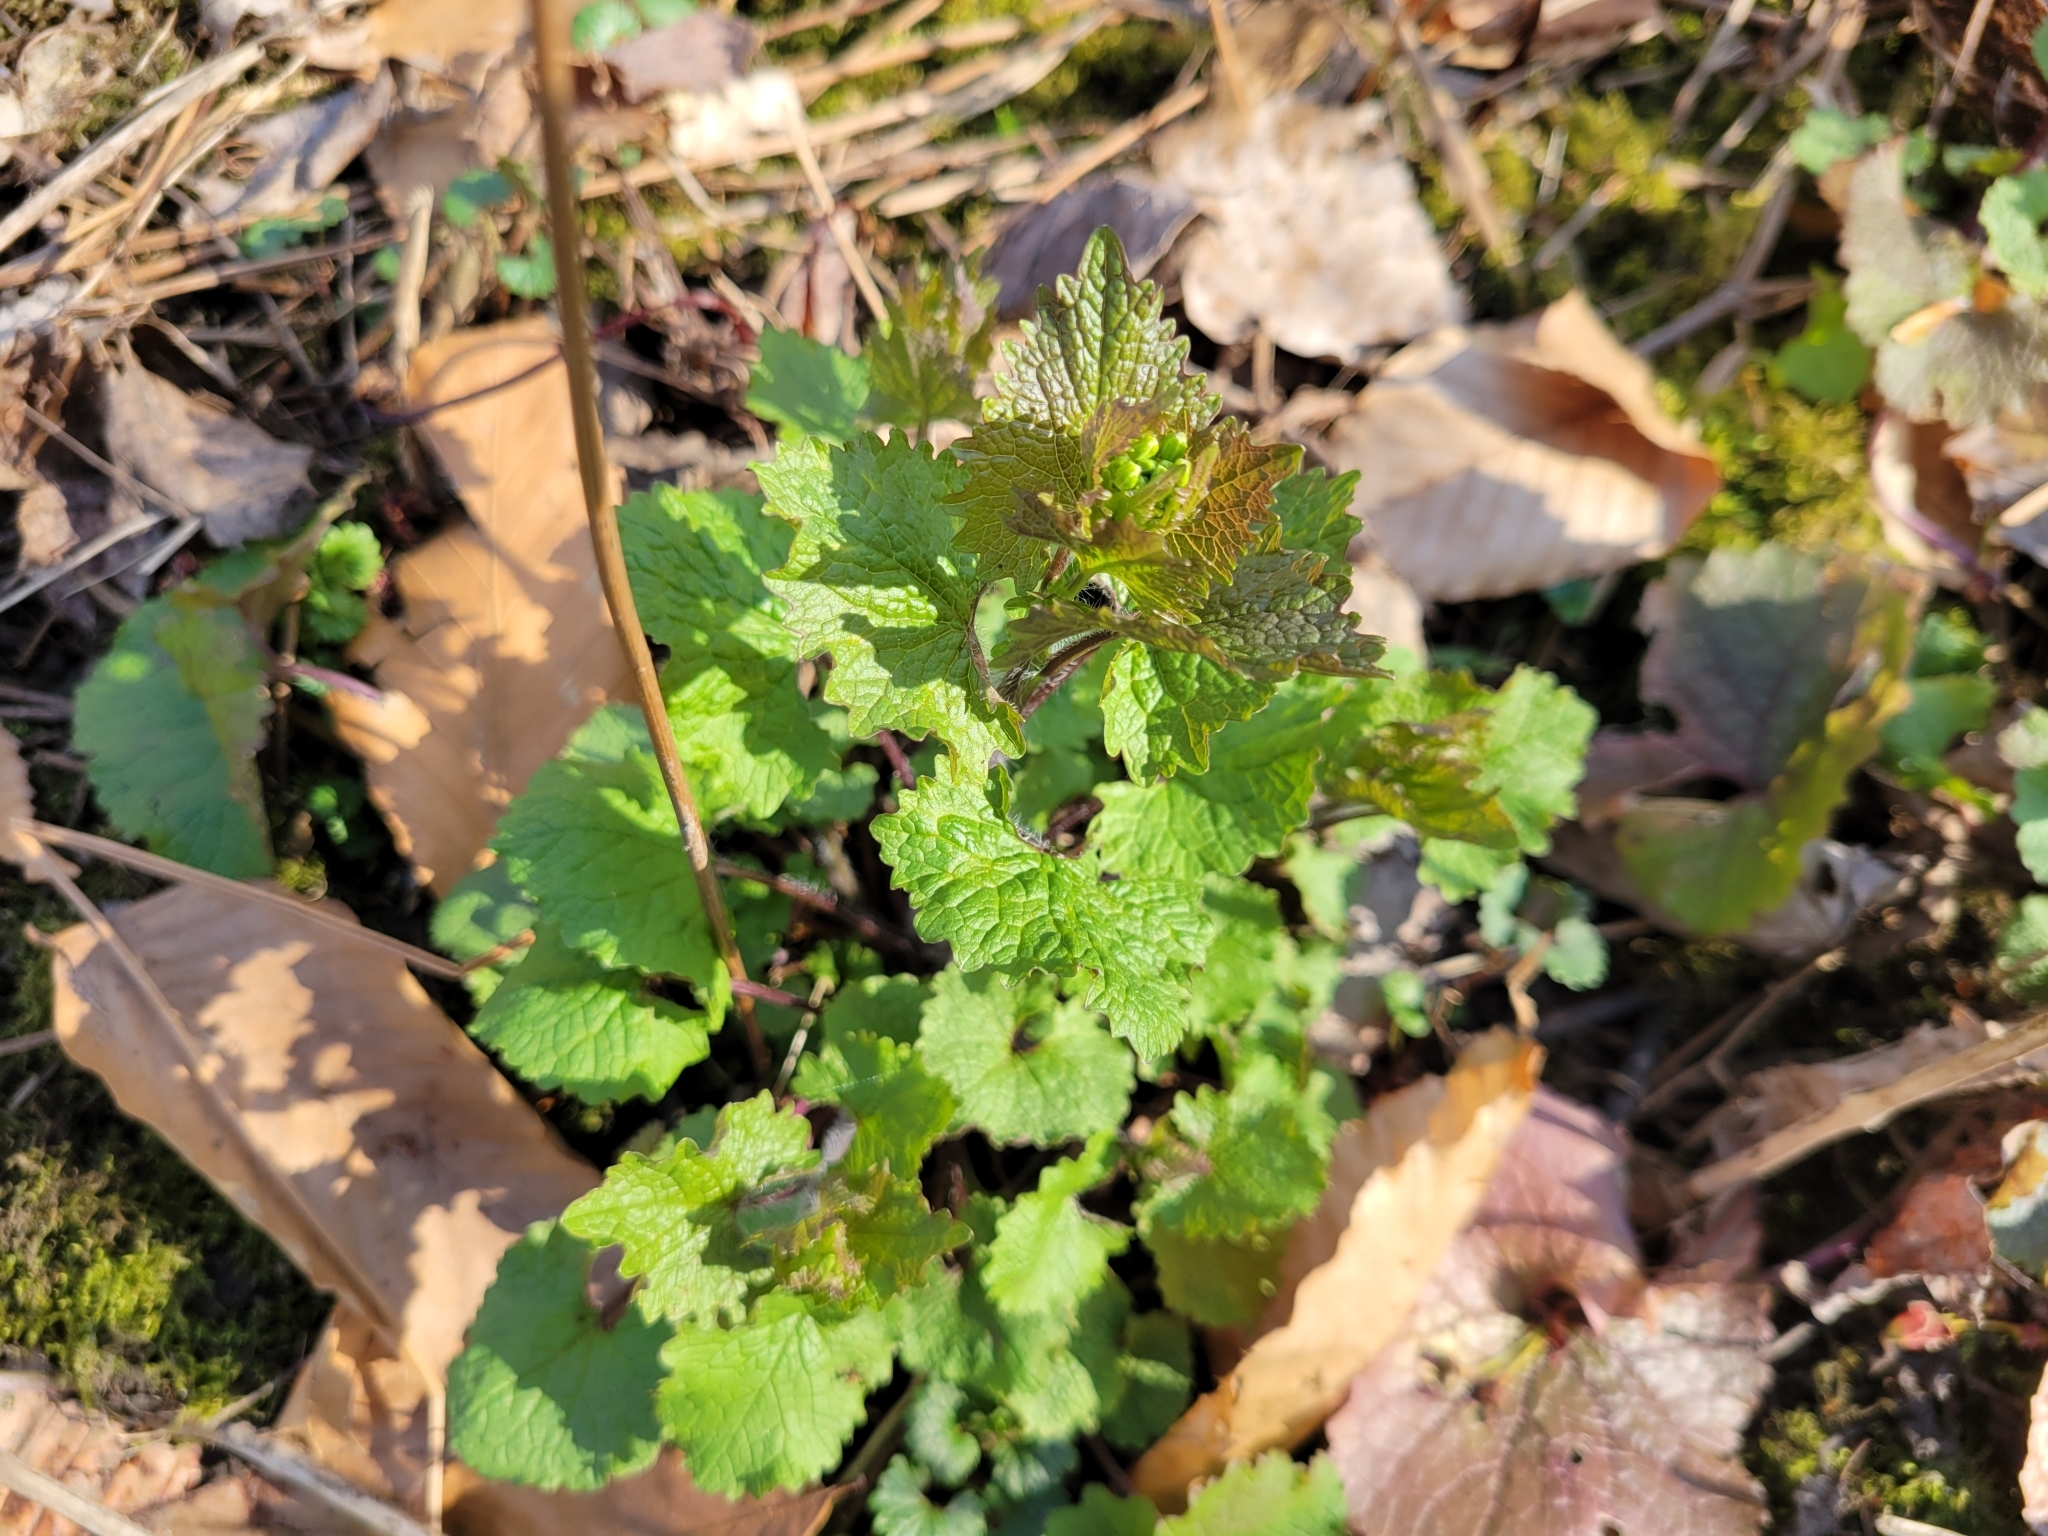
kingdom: Plantae
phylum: Tracheophyta
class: Magnoliopsida
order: Brassicales
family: Brassicaceae
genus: Alliaria
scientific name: Alliaria petiolata
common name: Garlic mustard
